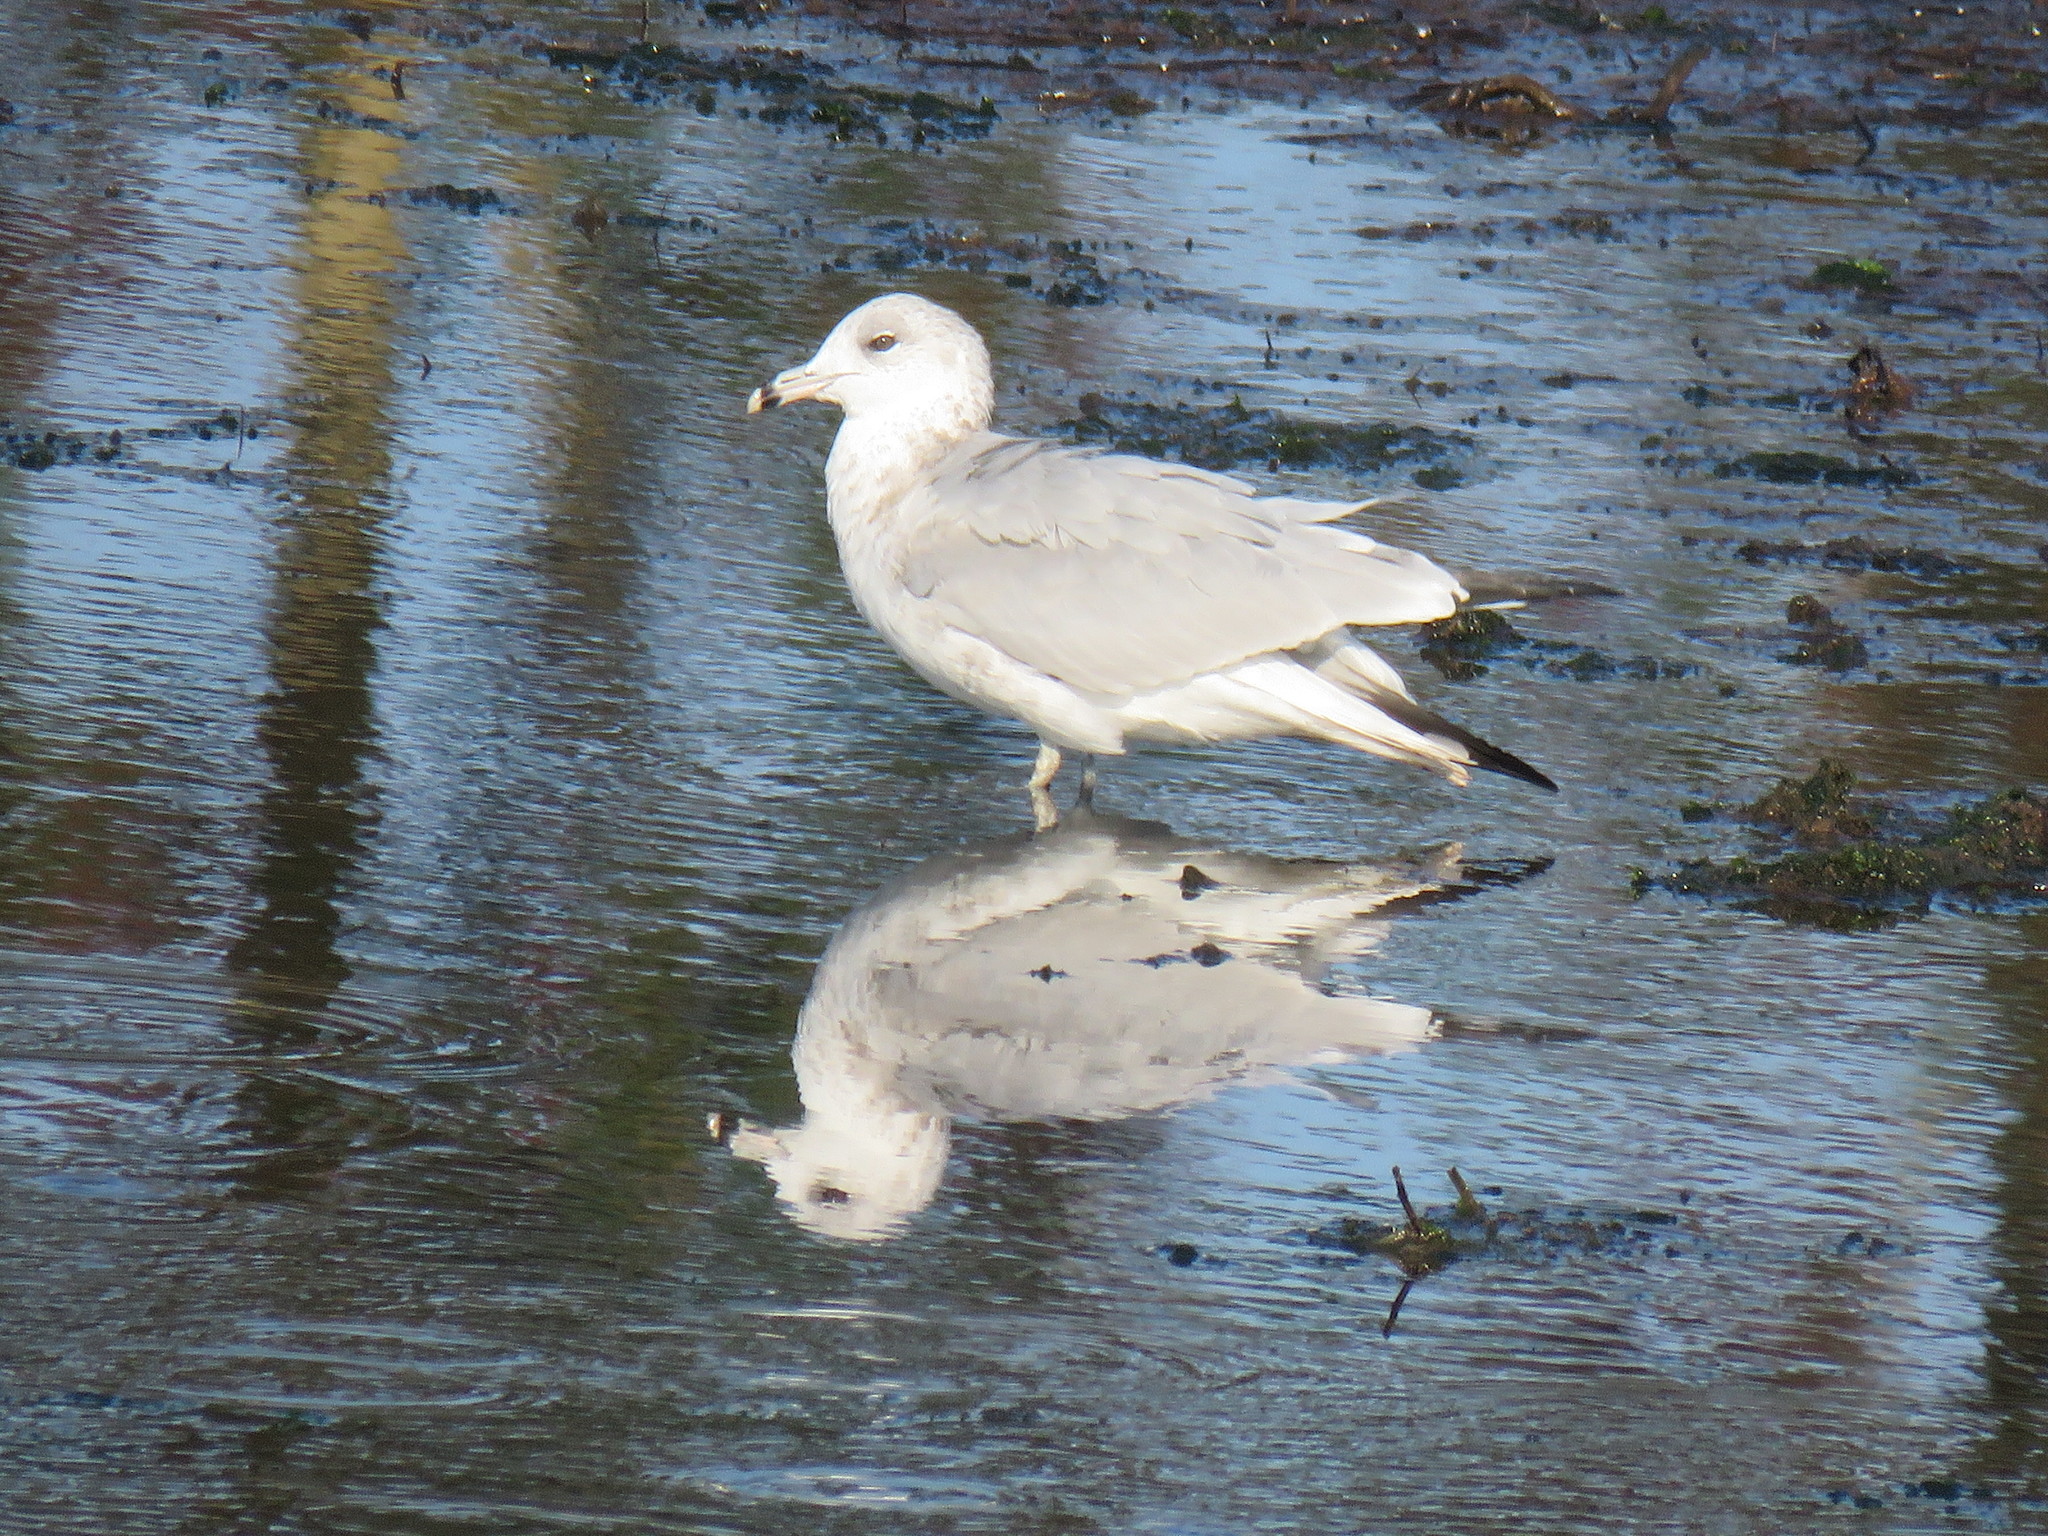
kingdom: Animalia
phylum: Chordata
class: Aves
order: Charadriiformes
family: Laridae
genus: Larus
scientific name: Larus delawarensis
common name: Ring-billed gull
